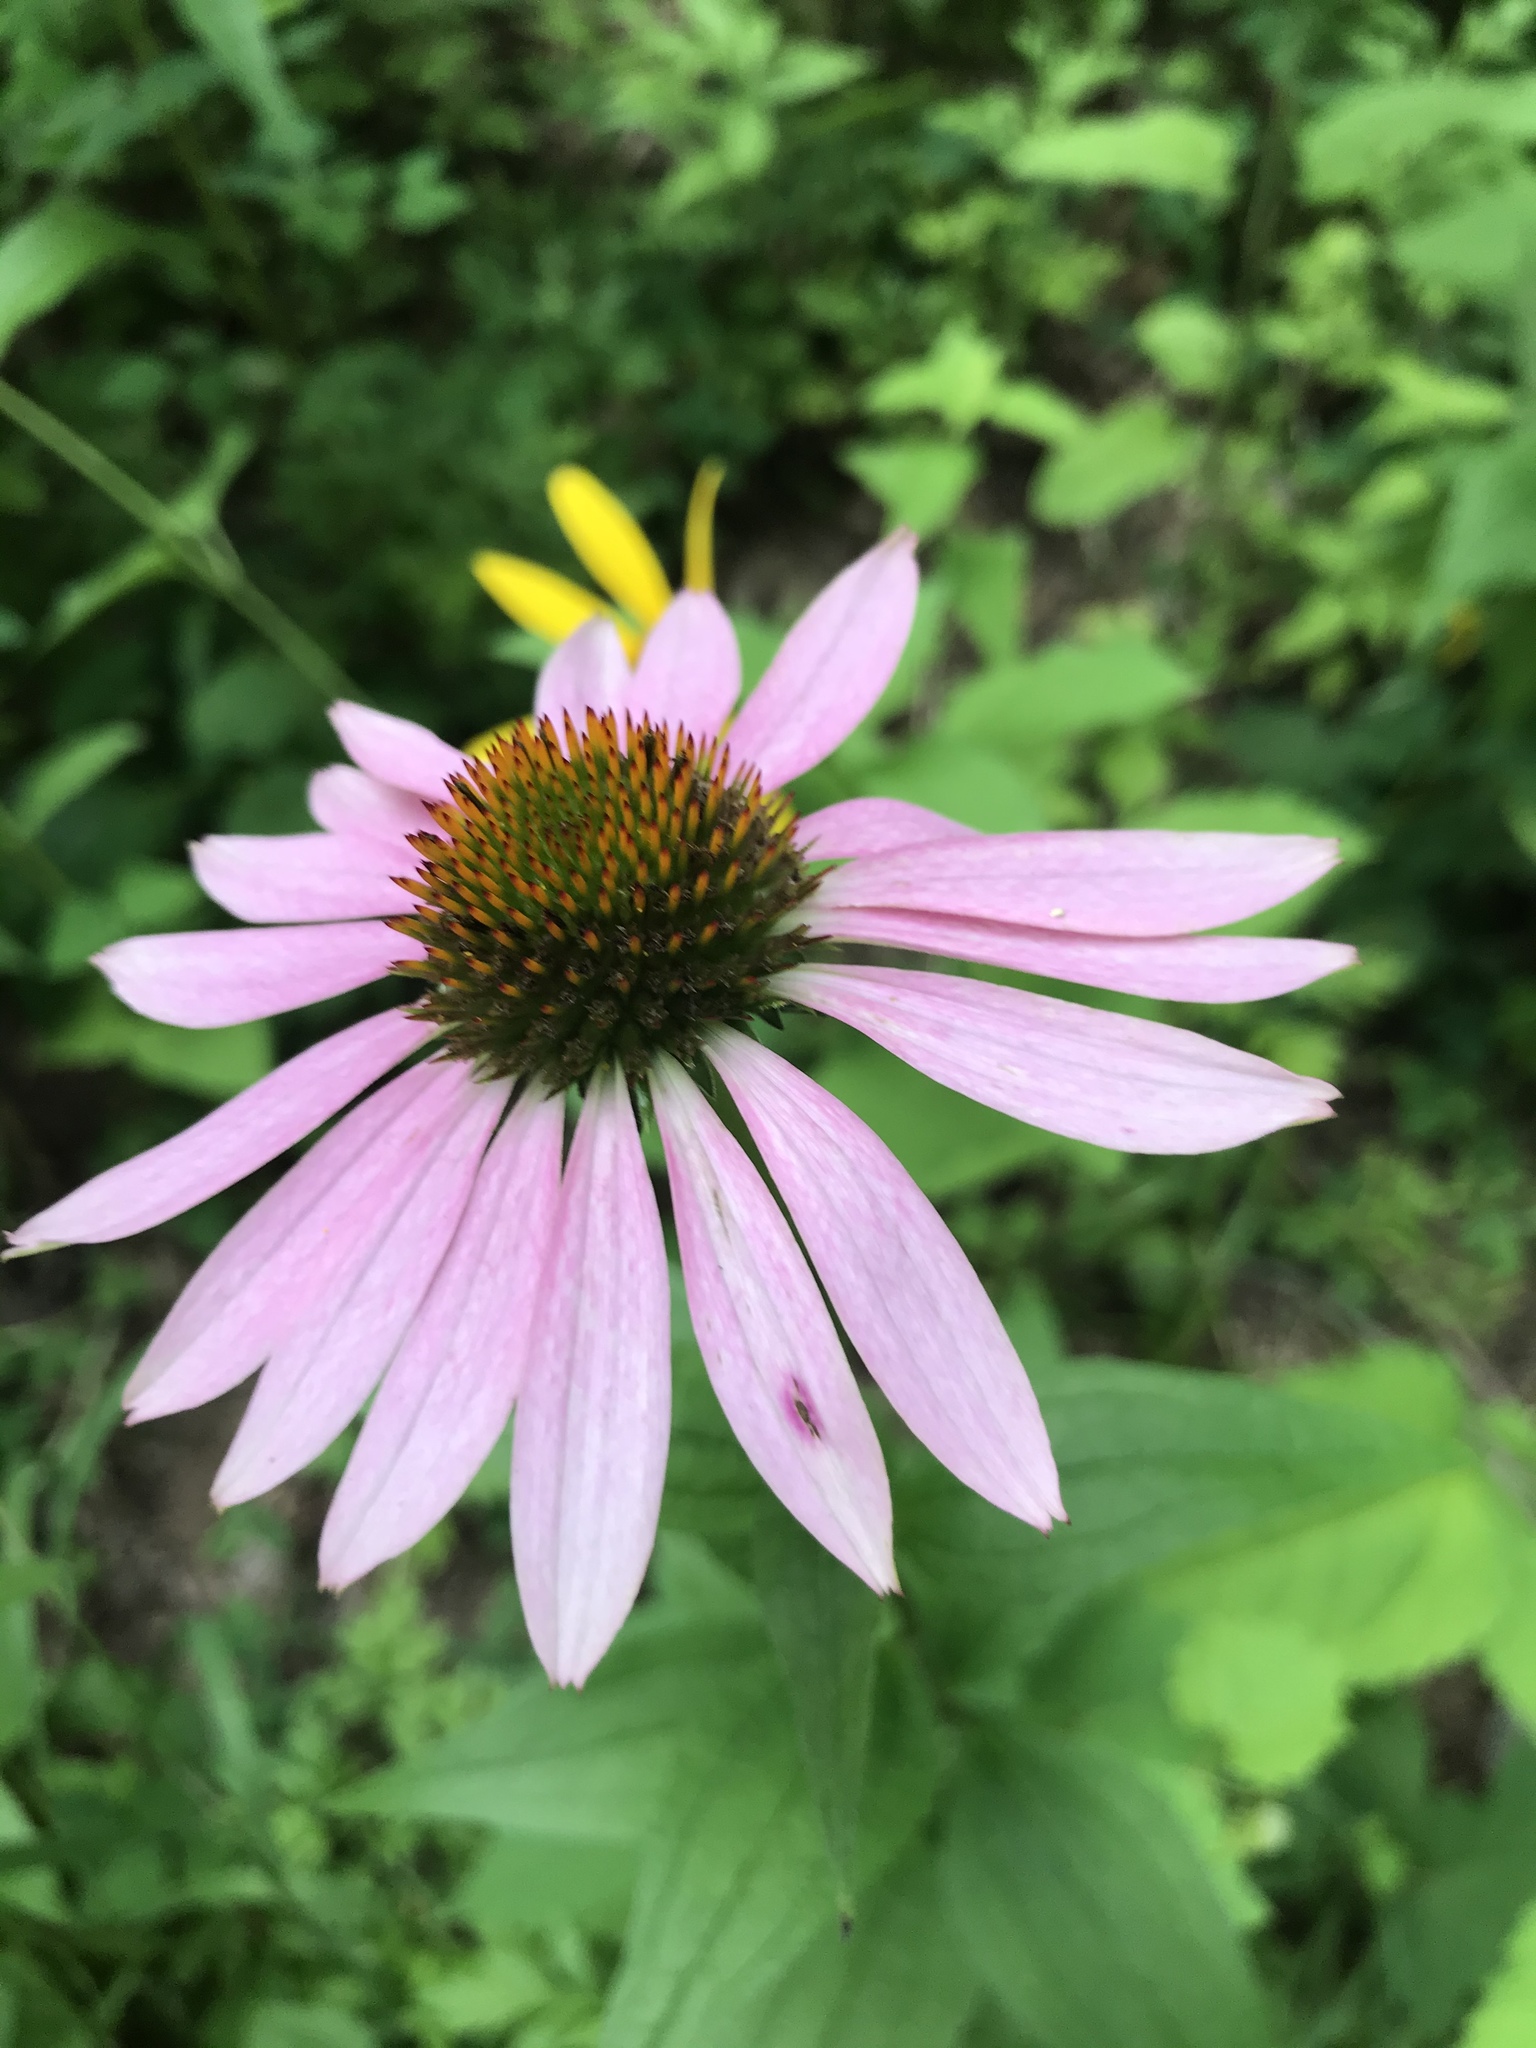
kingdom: Plantae
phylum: Tracheophyta
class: Magnoliopsida
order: Asterales
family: Asteraceae
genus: Echinacea
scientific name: Echinacea purpurea
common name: Broad-leaved purple coneflower
